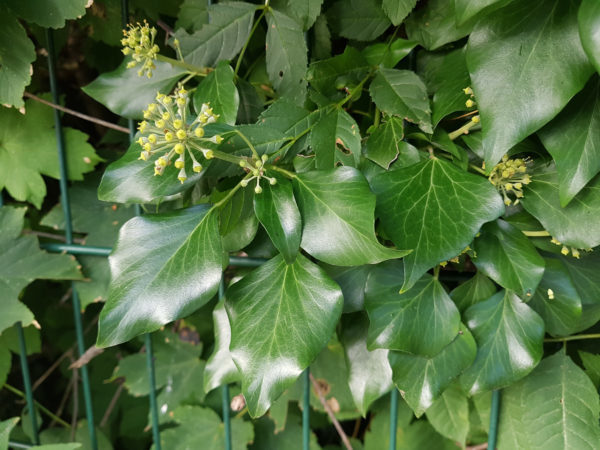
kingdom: Plantae
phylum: Tracheophyta
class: Magnoliopsida
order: Apiales
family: Araliaceae
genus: Hedera
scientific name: Hedera helix
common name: Ivy
